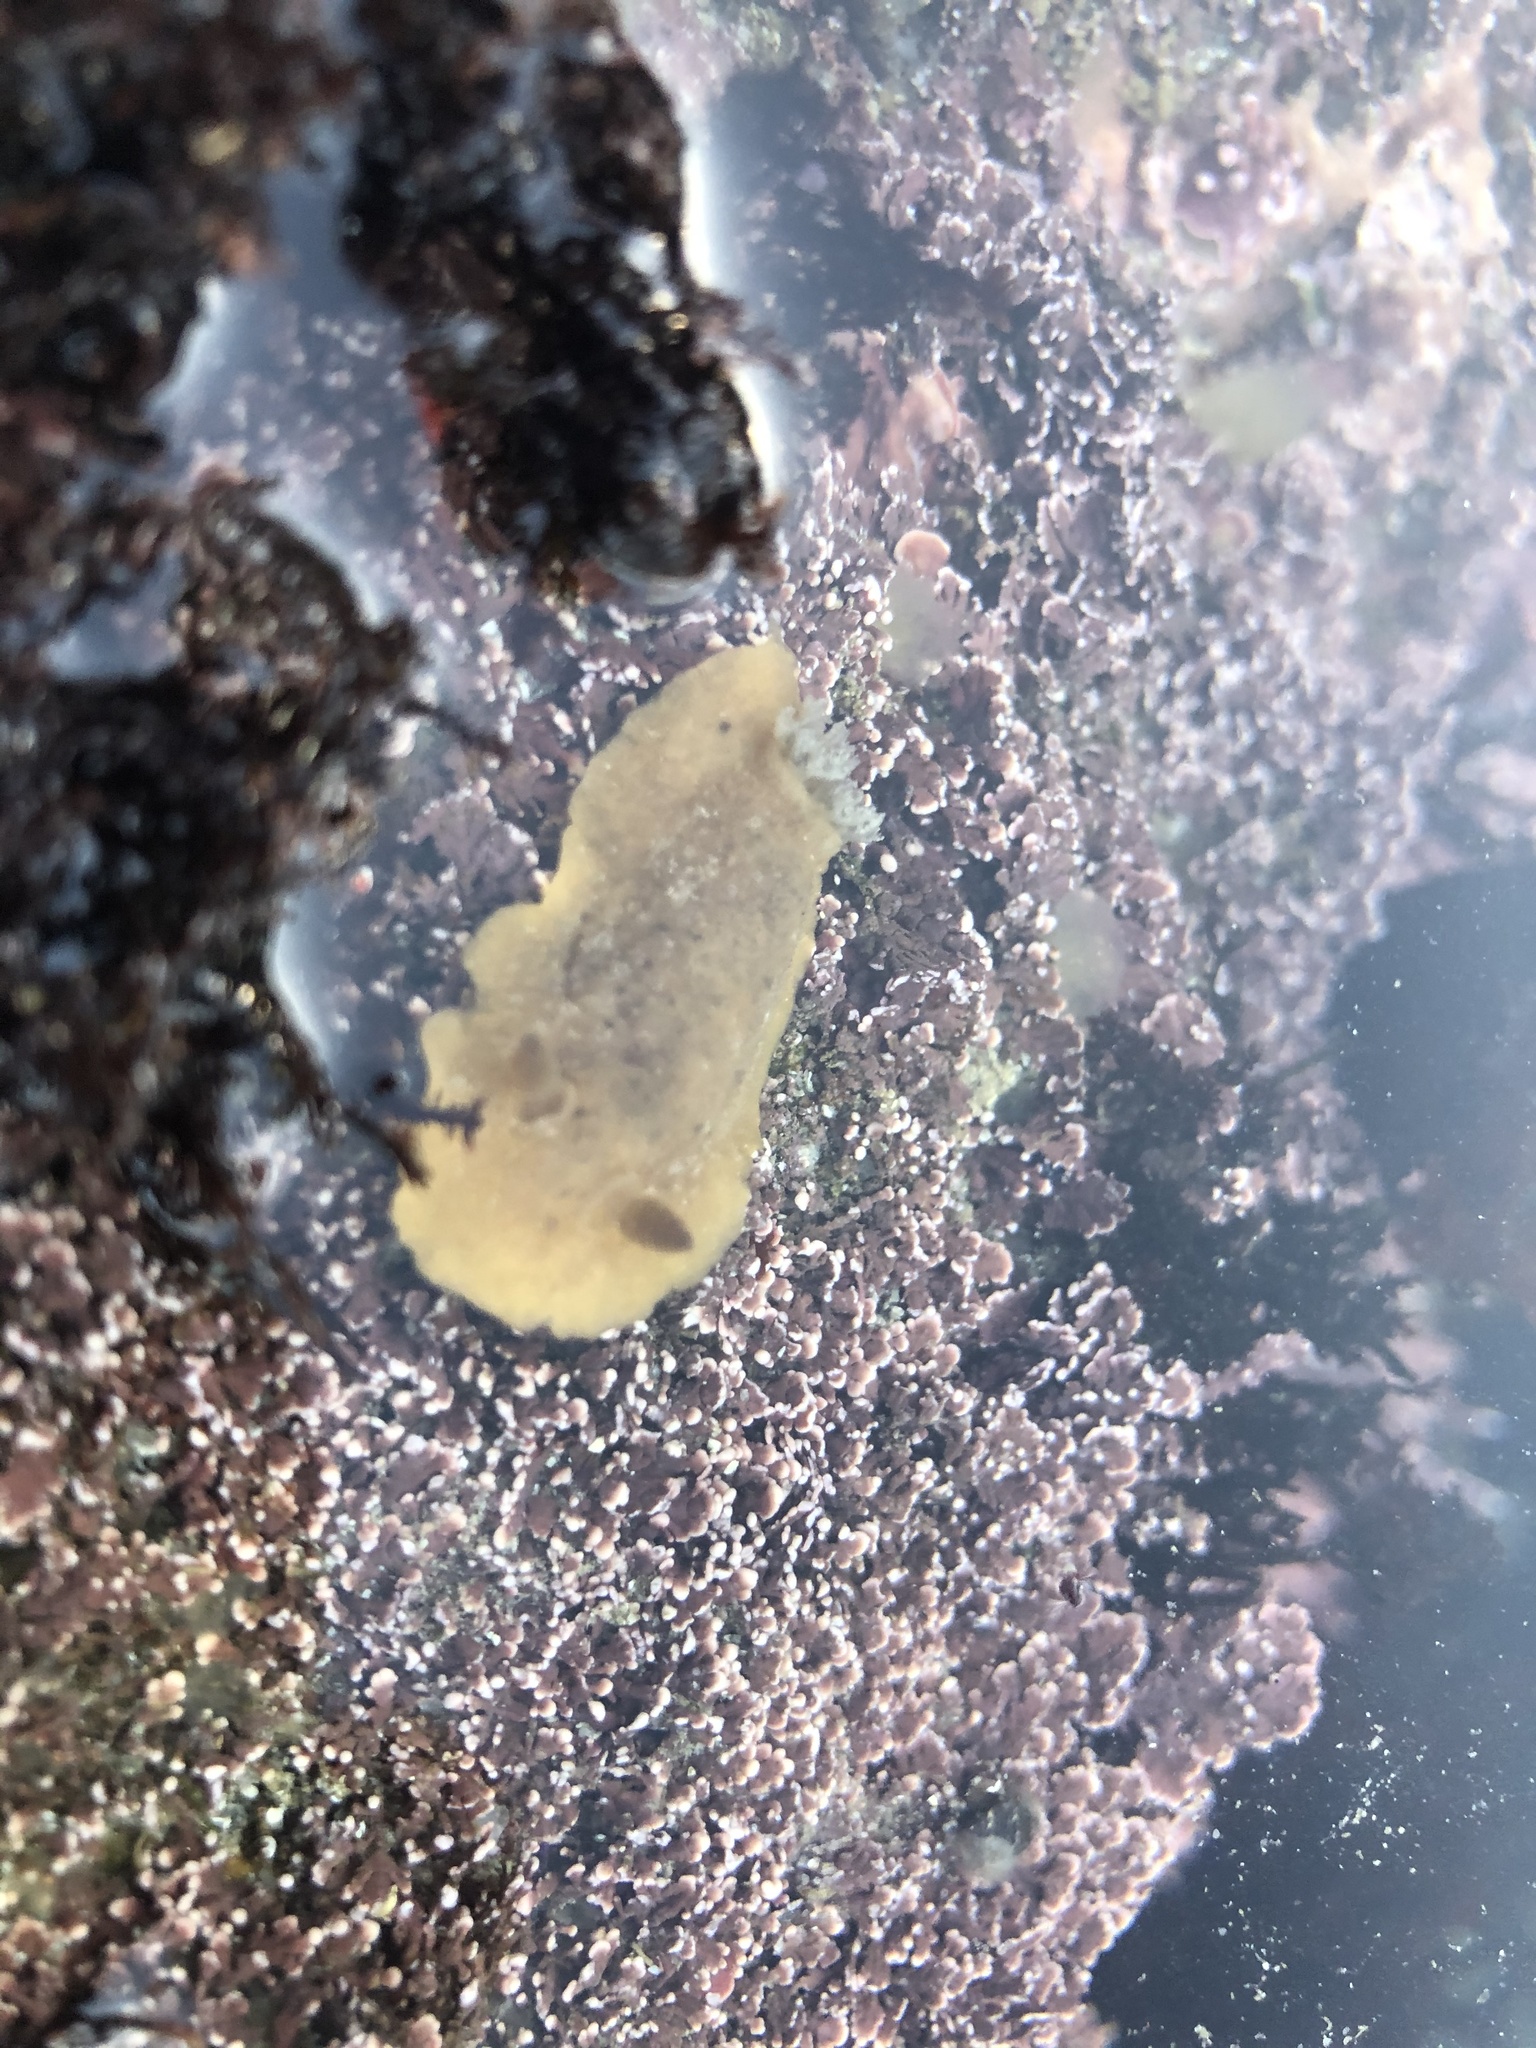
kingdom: Animalia
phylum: Mollusca
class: Gastropoda
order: Nudibranchia
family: Discodorididae
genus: Geitodoris
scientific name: Geitodoris heathi
